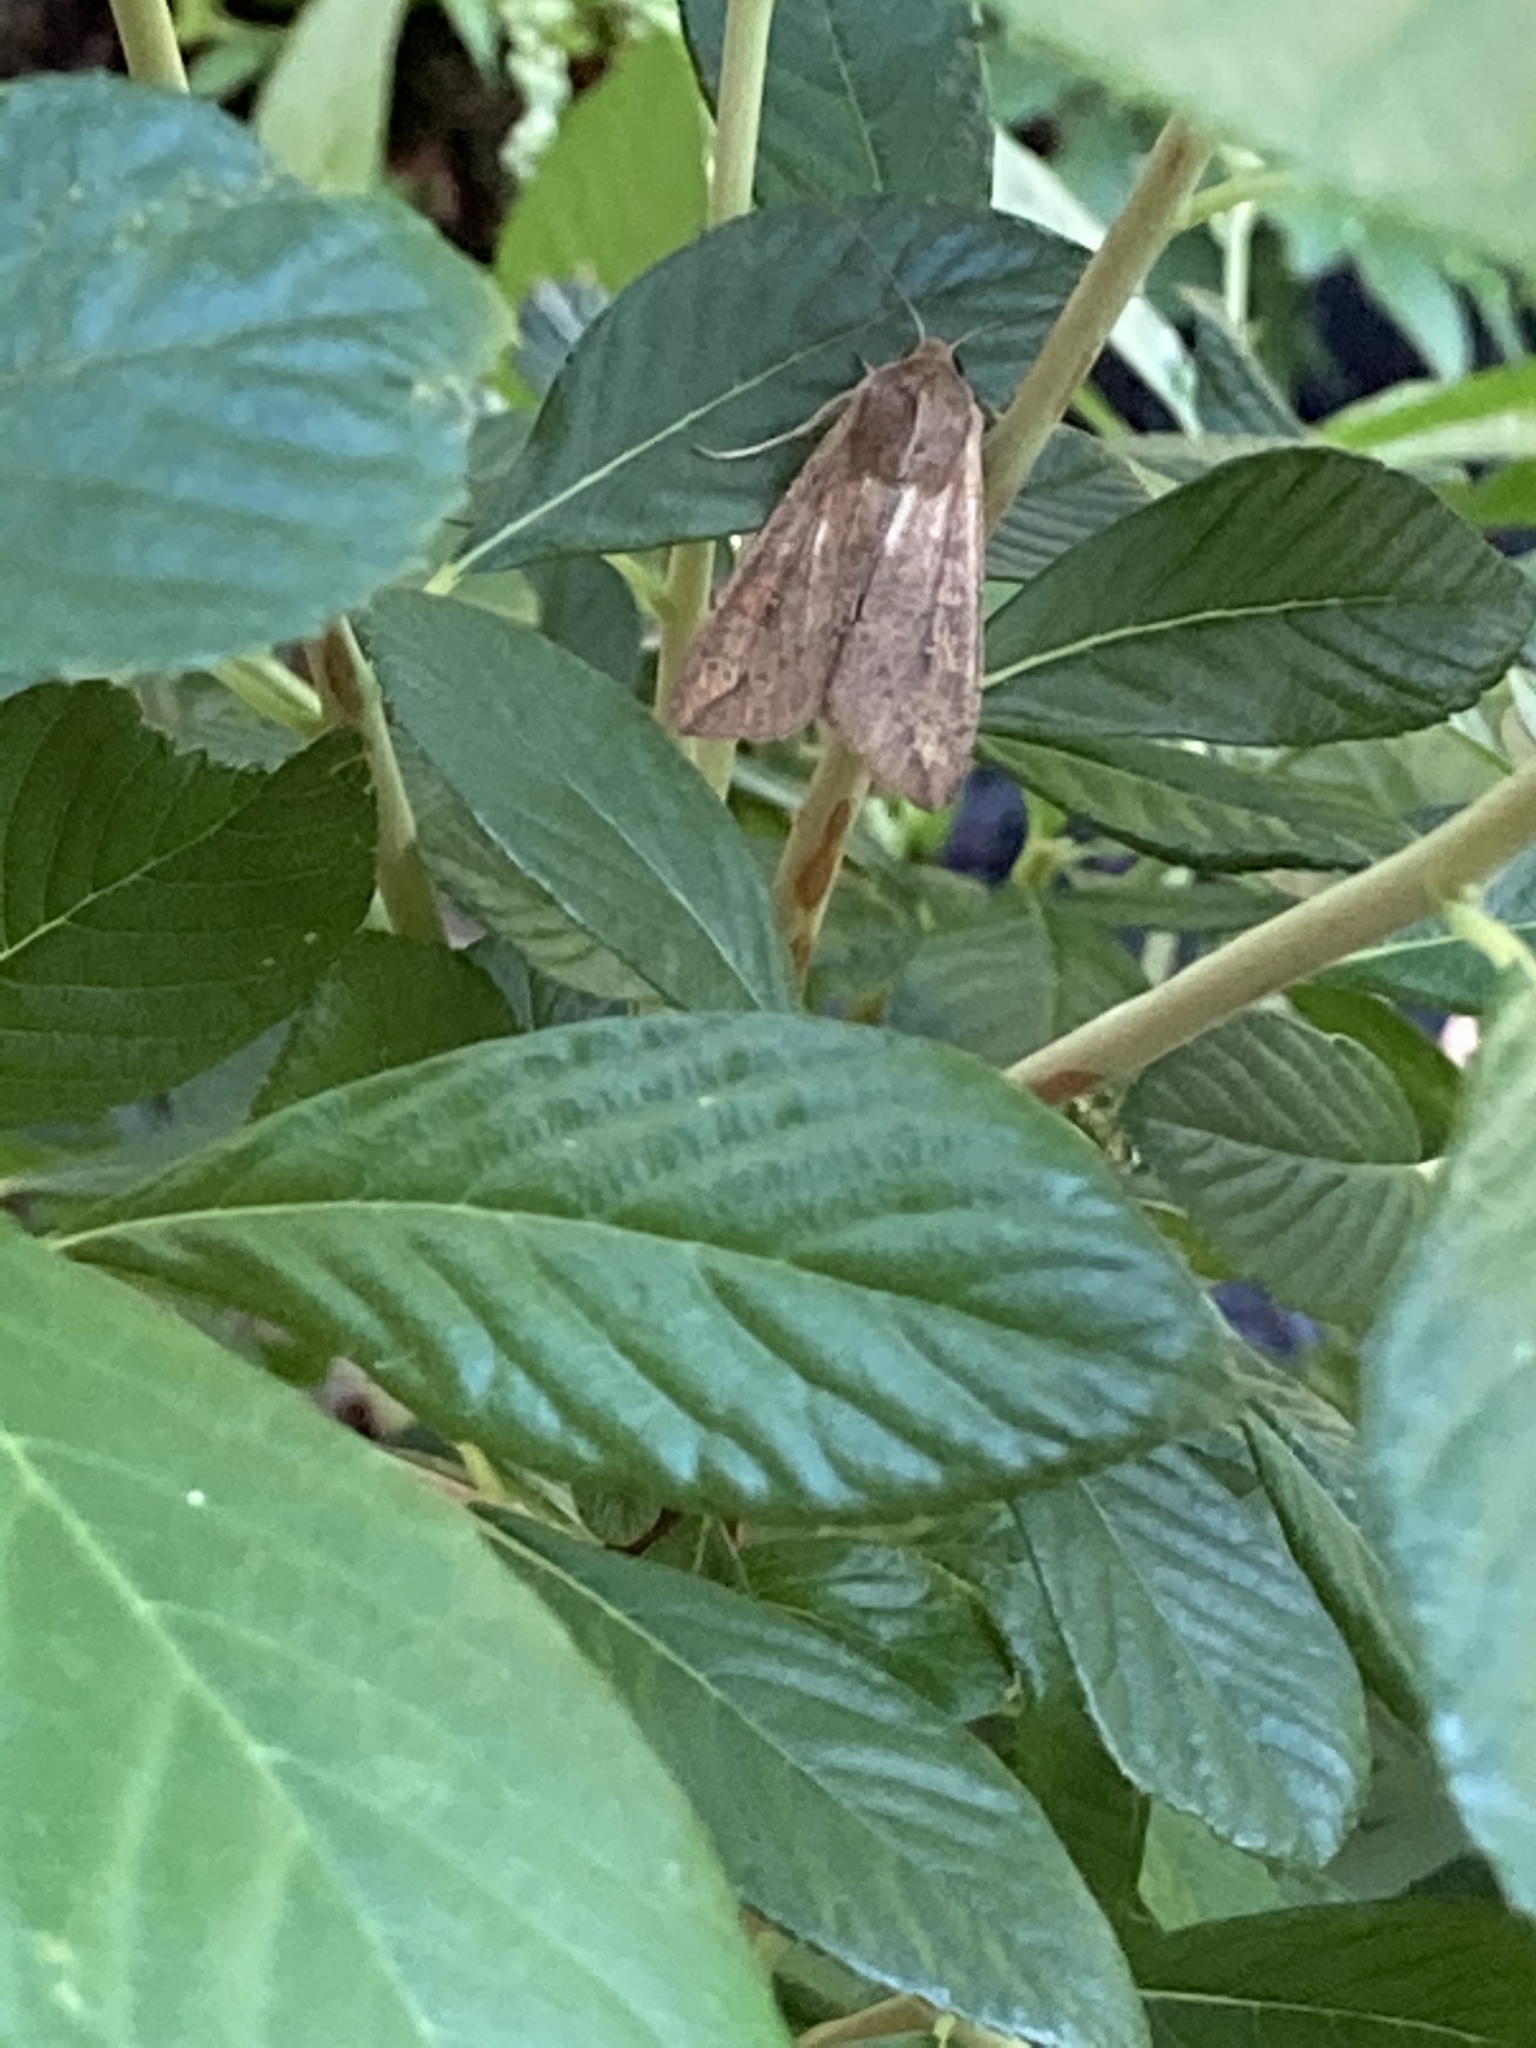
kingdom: Animalia
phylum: Arthropoda
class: Insecta
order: Lepidoptera
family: Noctuidae
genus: Mythimna
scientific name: Mythimna unipuncta
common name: White-speck
